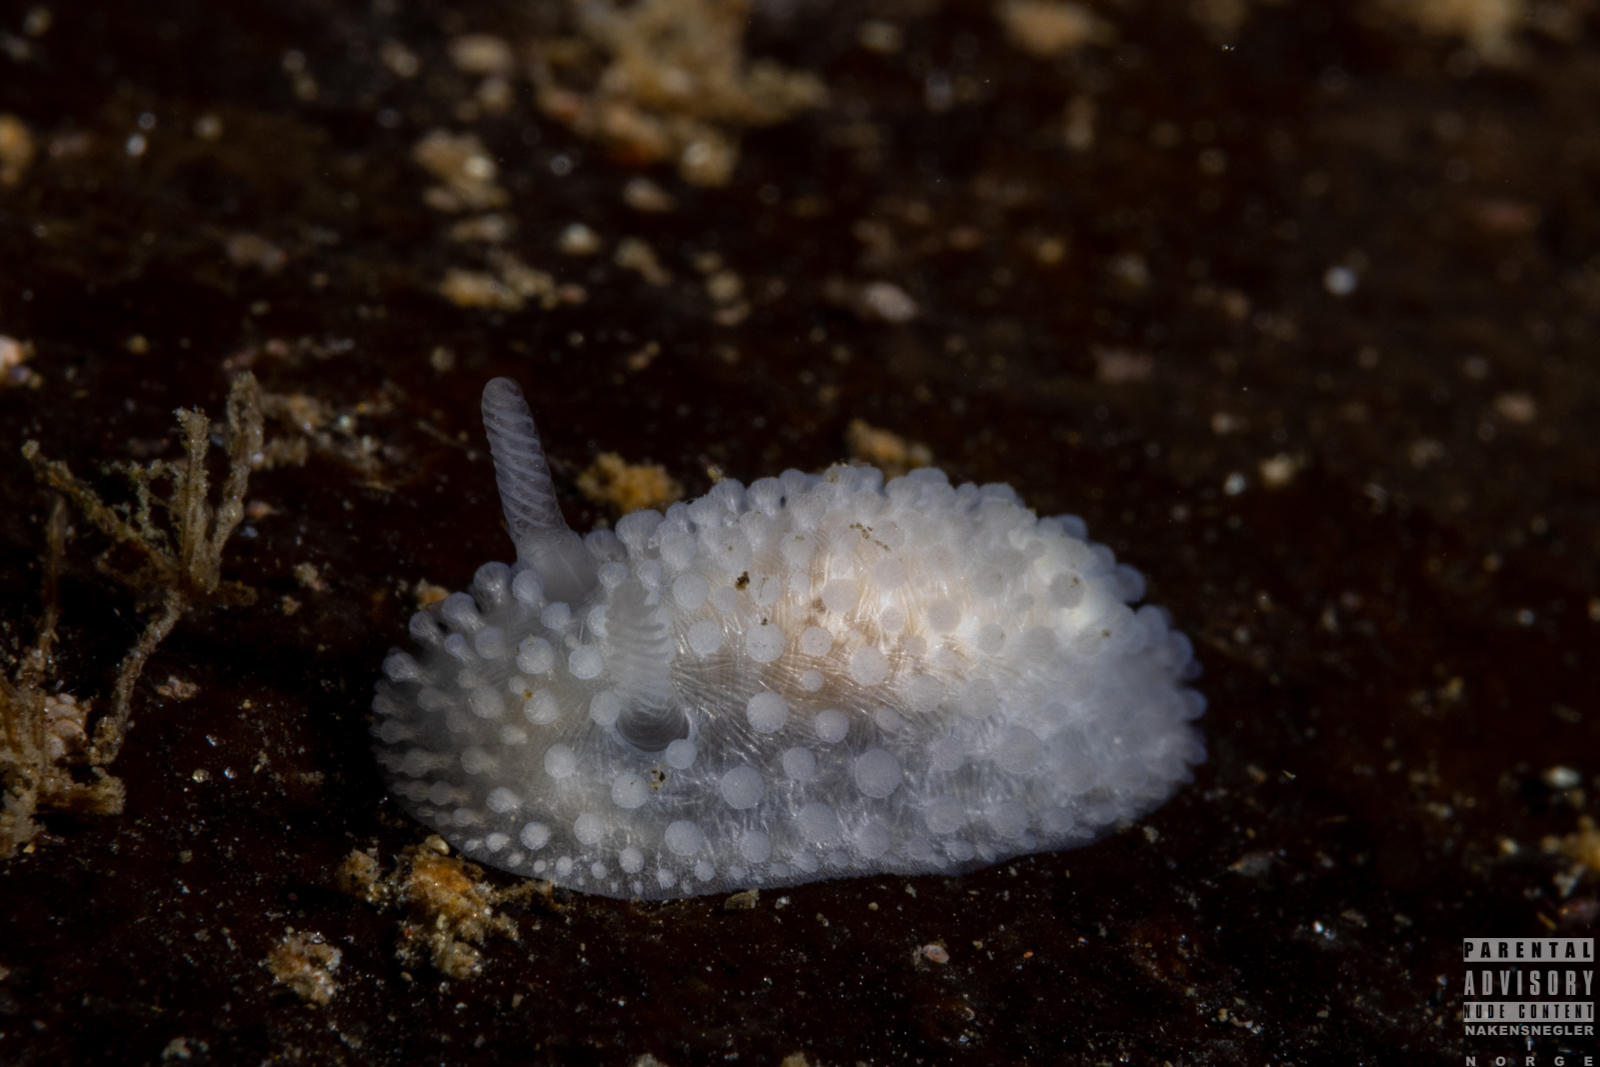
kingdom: Animalia
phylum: Mollusca
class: Gastropoda
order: Nudibranchia
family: Onchidorididae
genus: Onchidoris
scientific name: Onchidoris muricata
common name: Rough doris
